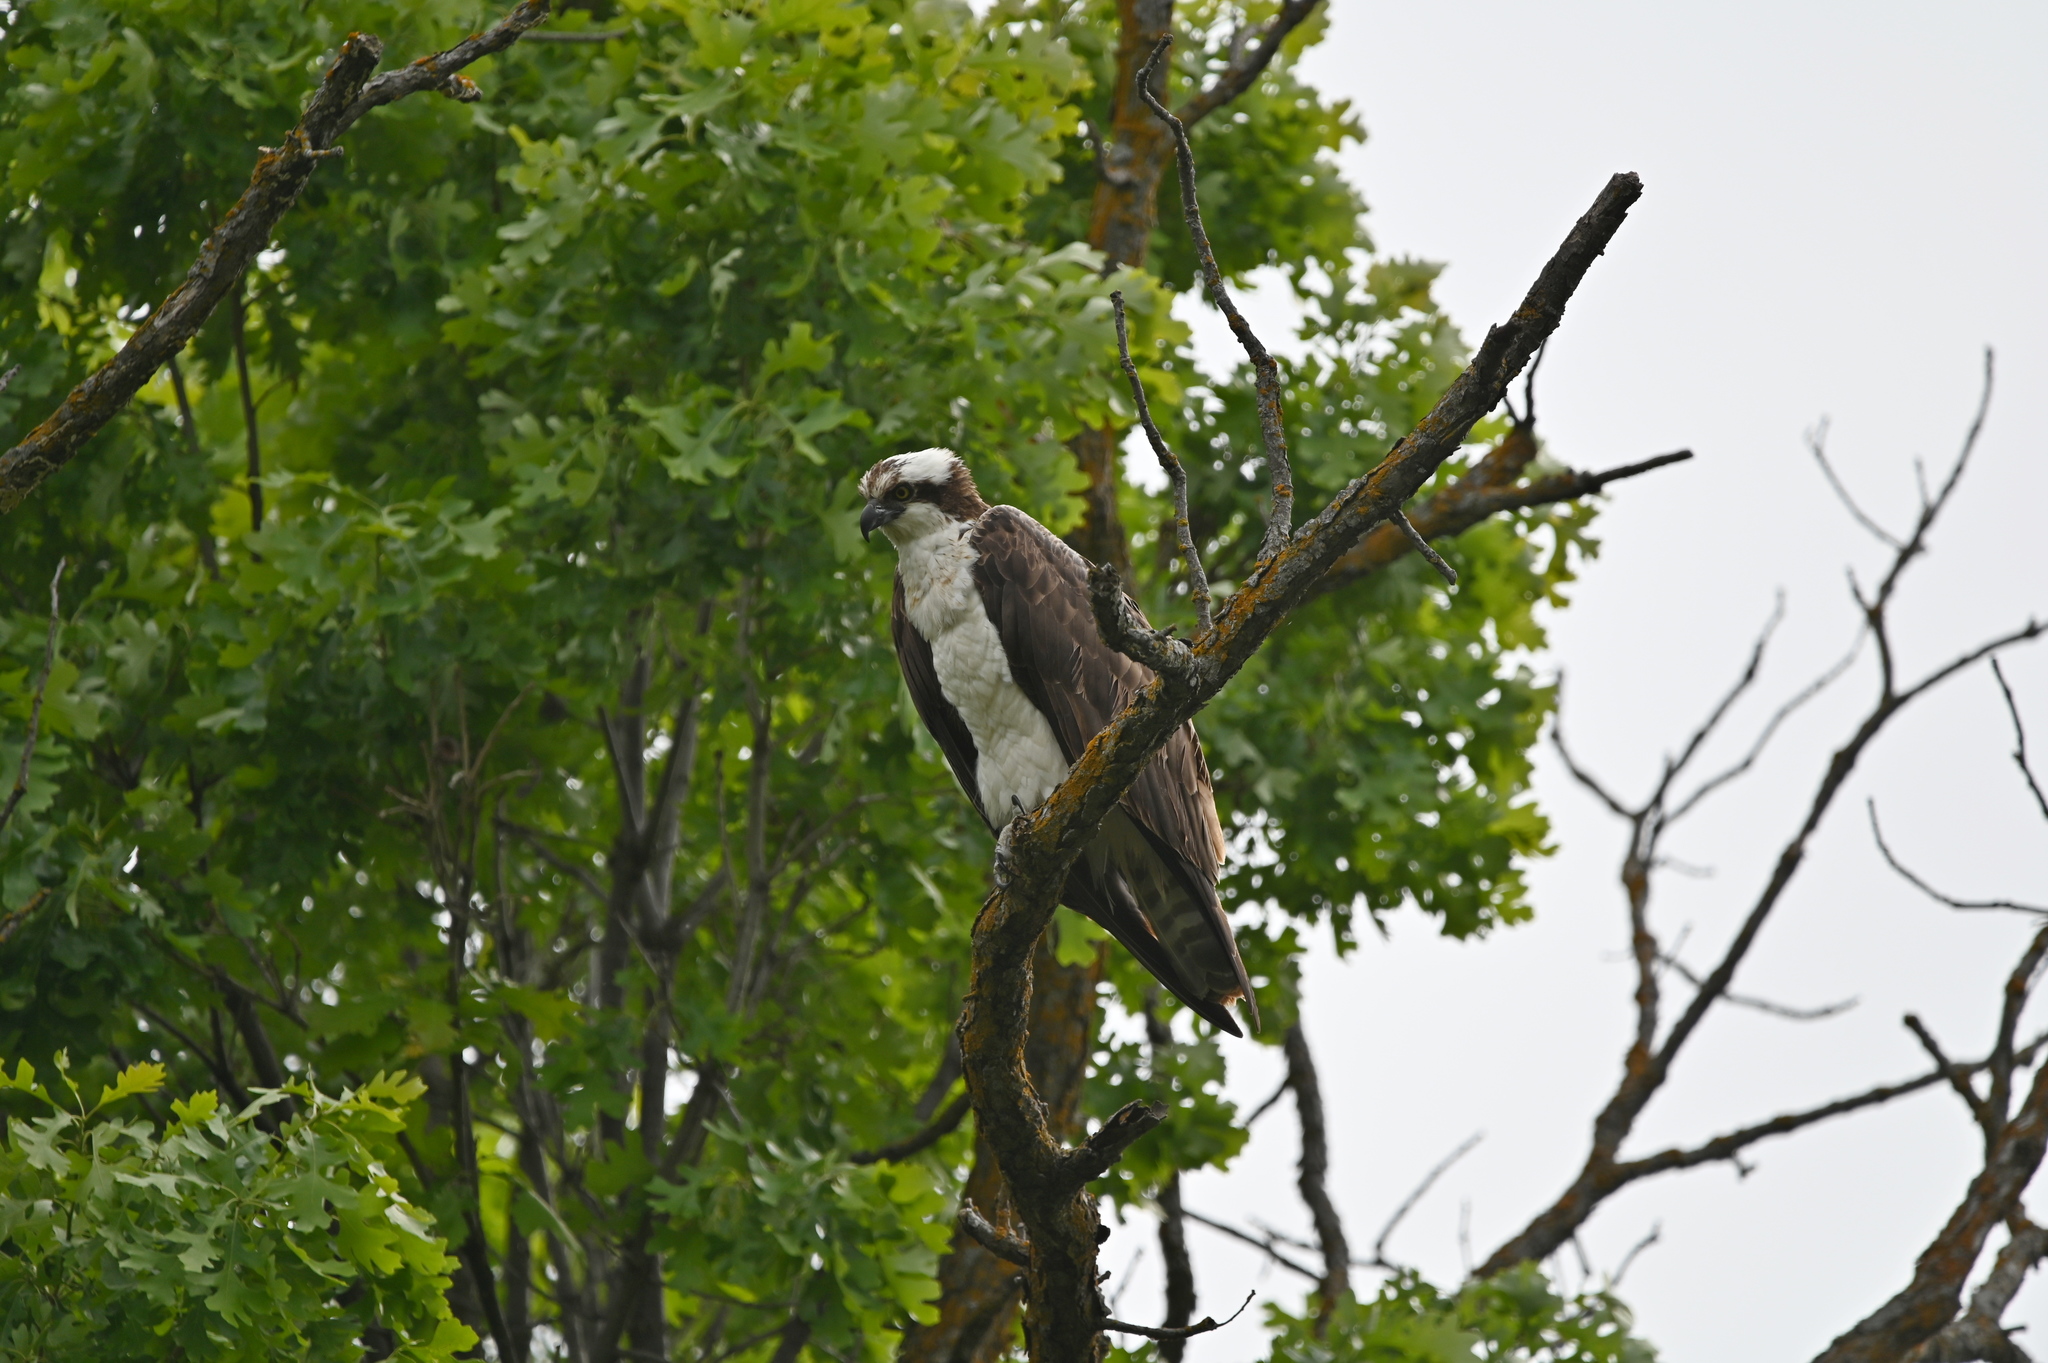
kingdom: Animalia
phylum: Chordata
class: Aves
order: Accipitriformes
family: Pandionidae
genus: Pandion
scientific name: Pandion haliaetus
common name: Osprey
